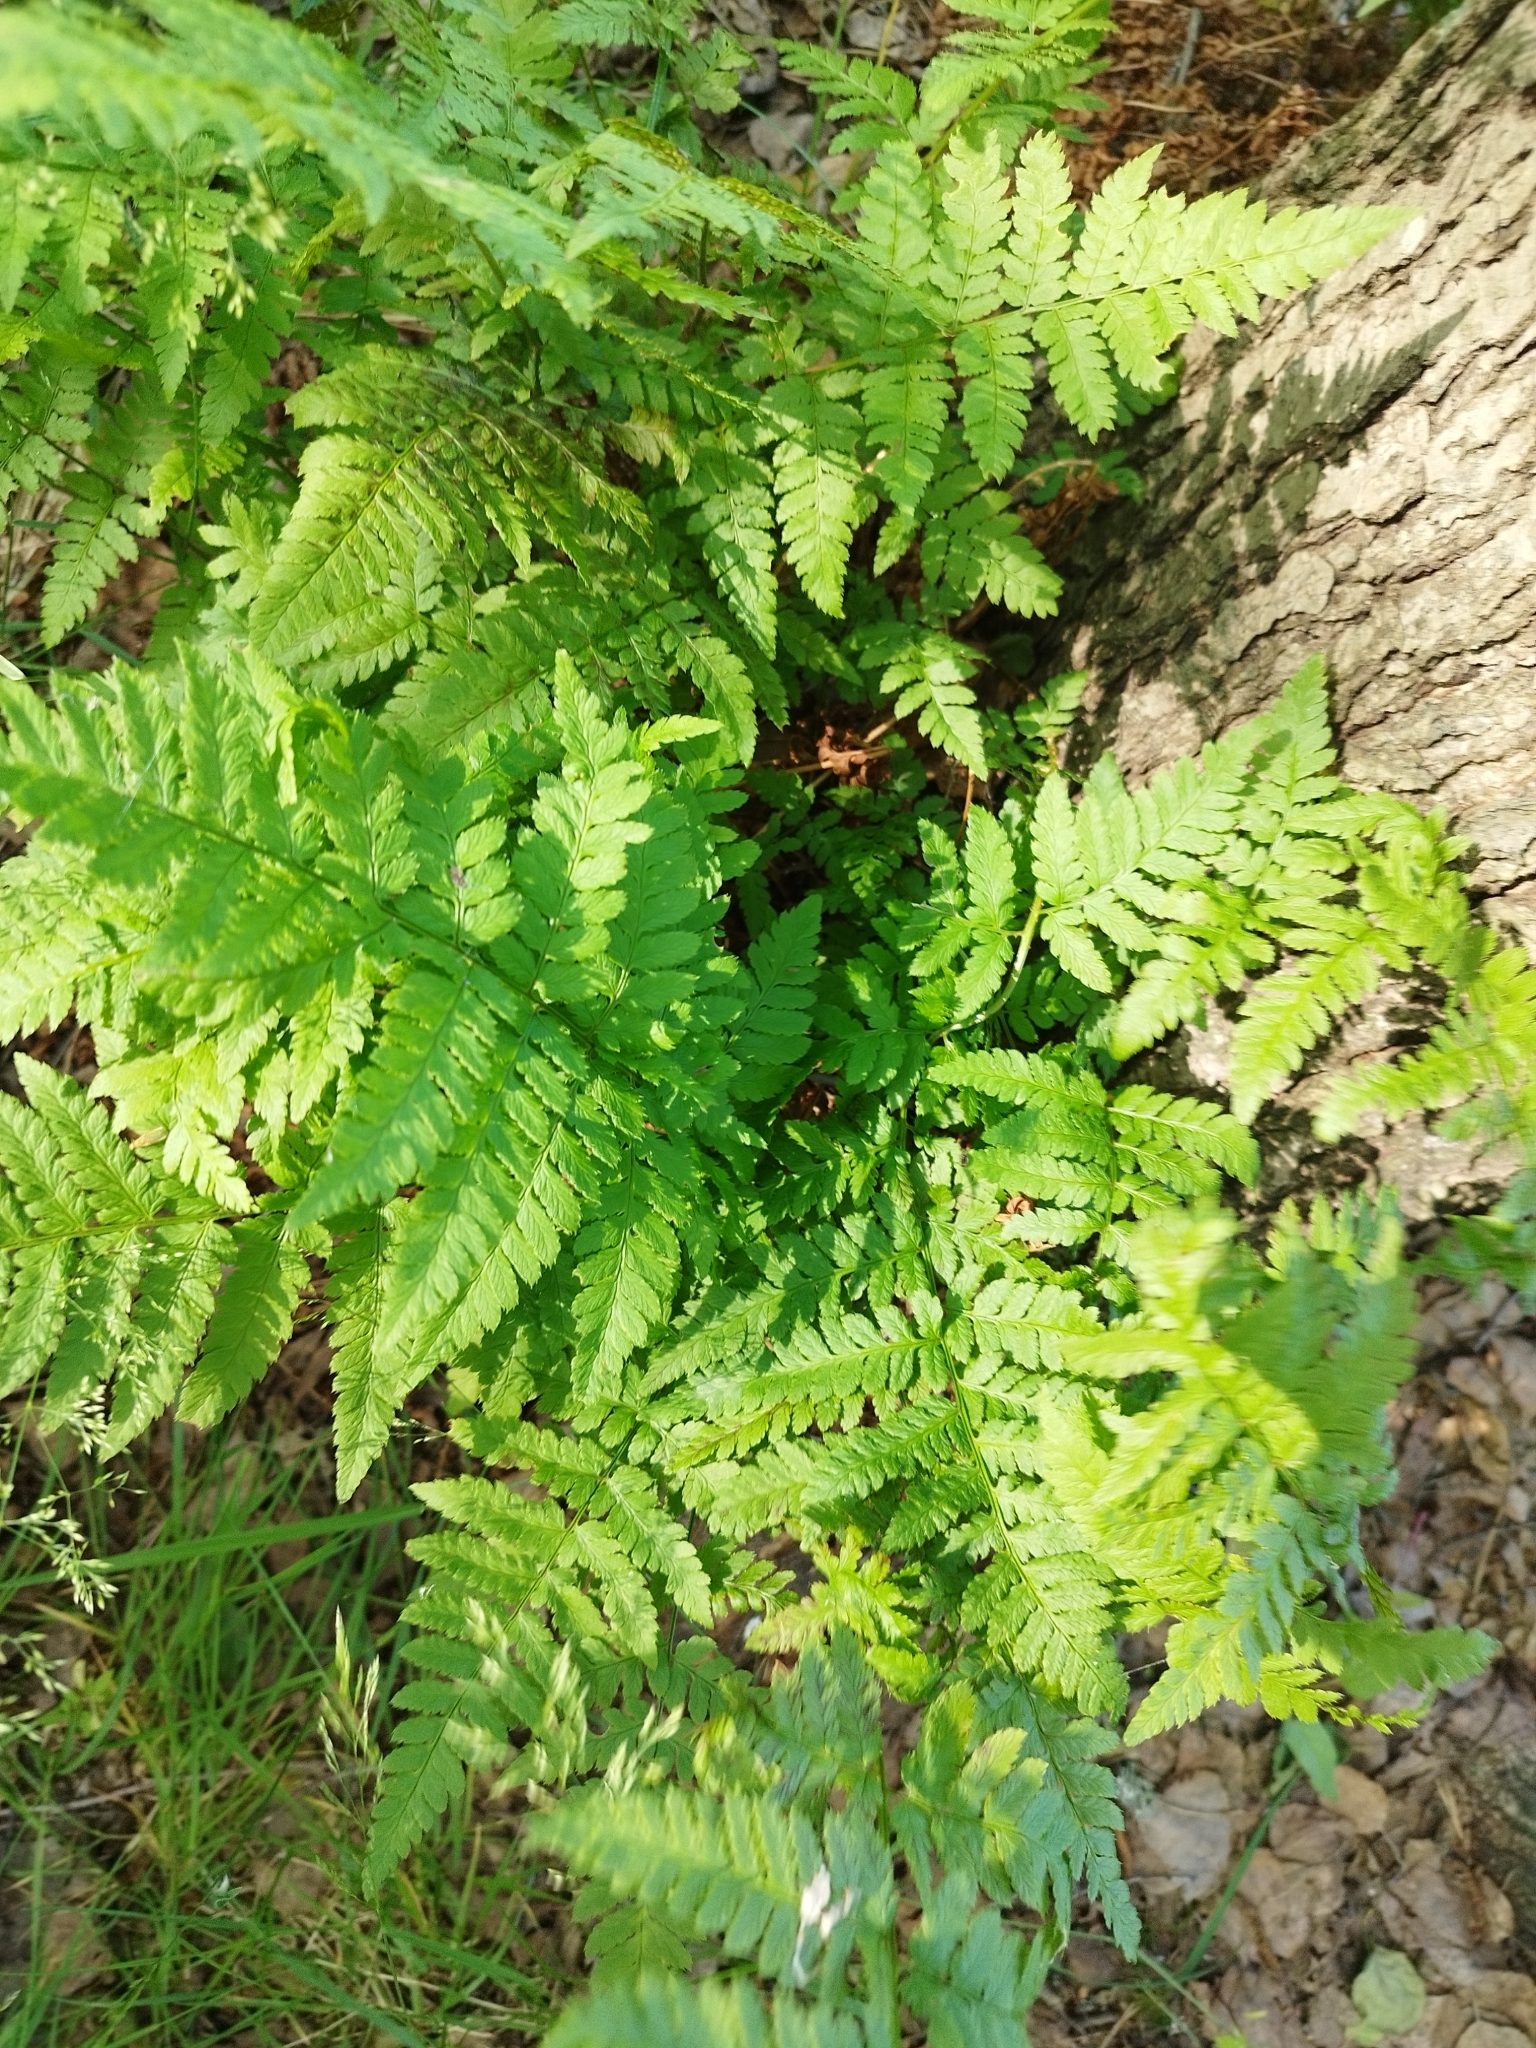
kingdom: Plantae
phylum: Tracheophyta
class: Polypodiopsida
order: Polypodiales
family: Dryopteridaceae
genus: Dryopteris
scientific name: Dryopteris carthusiana
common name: Narrow buckler-fern
